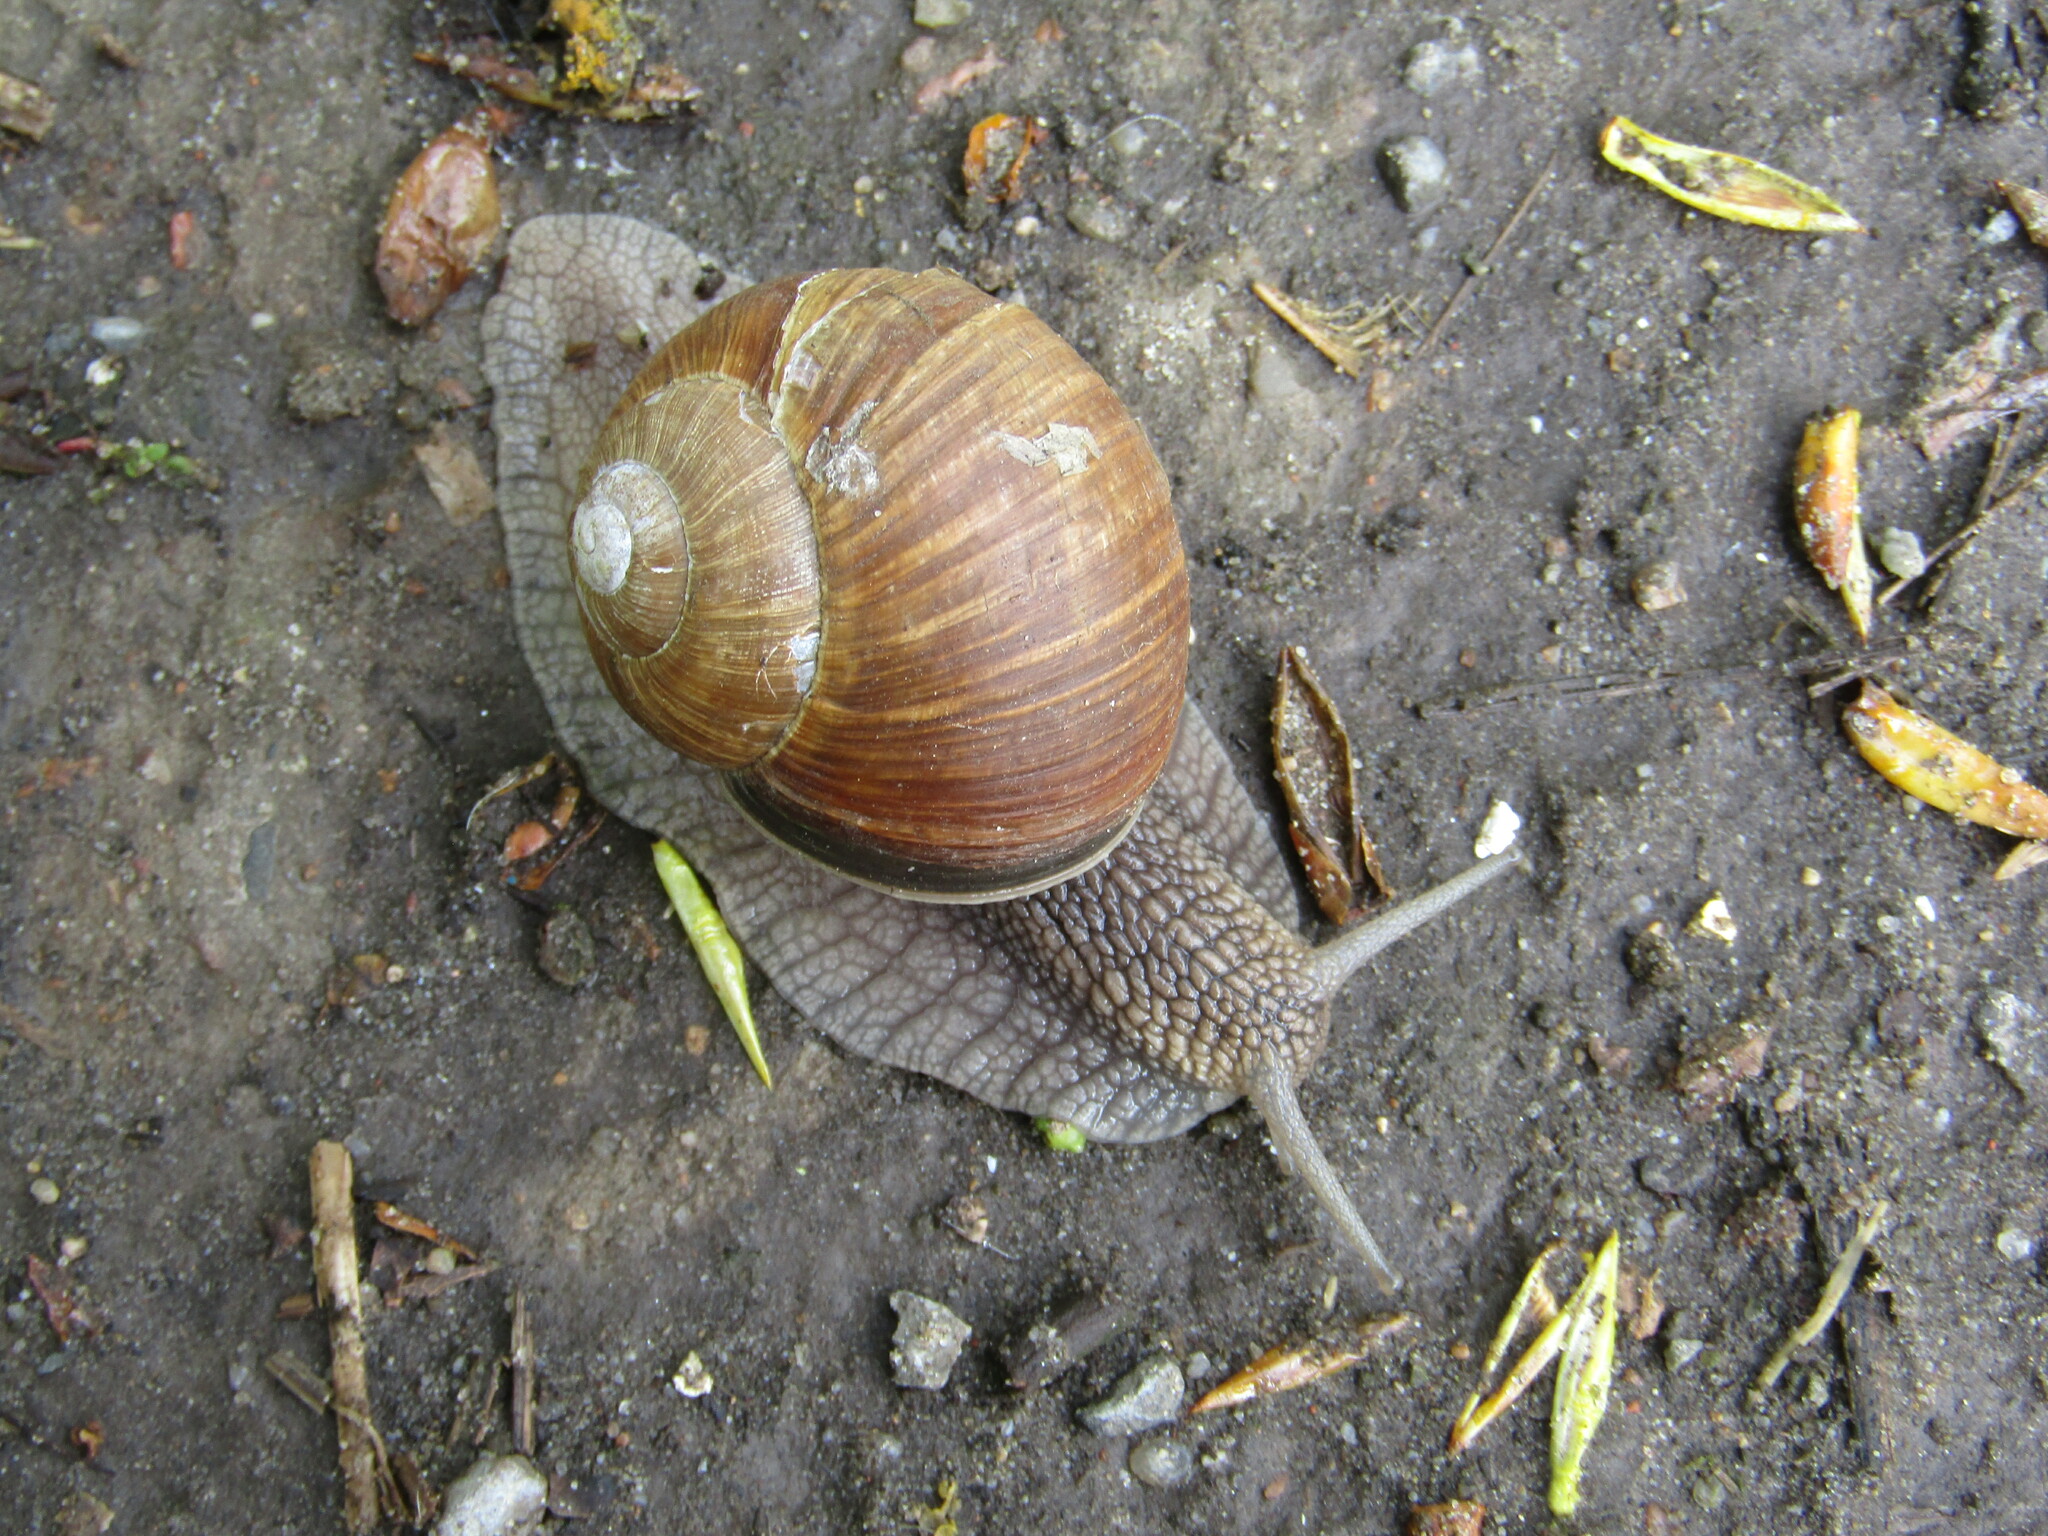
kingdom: Animalia
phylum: Mollusca
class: Gastropoda
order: Stylommatophora
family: Helicidae
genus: Helix
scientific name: Helix pomatia
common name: Roman snail
